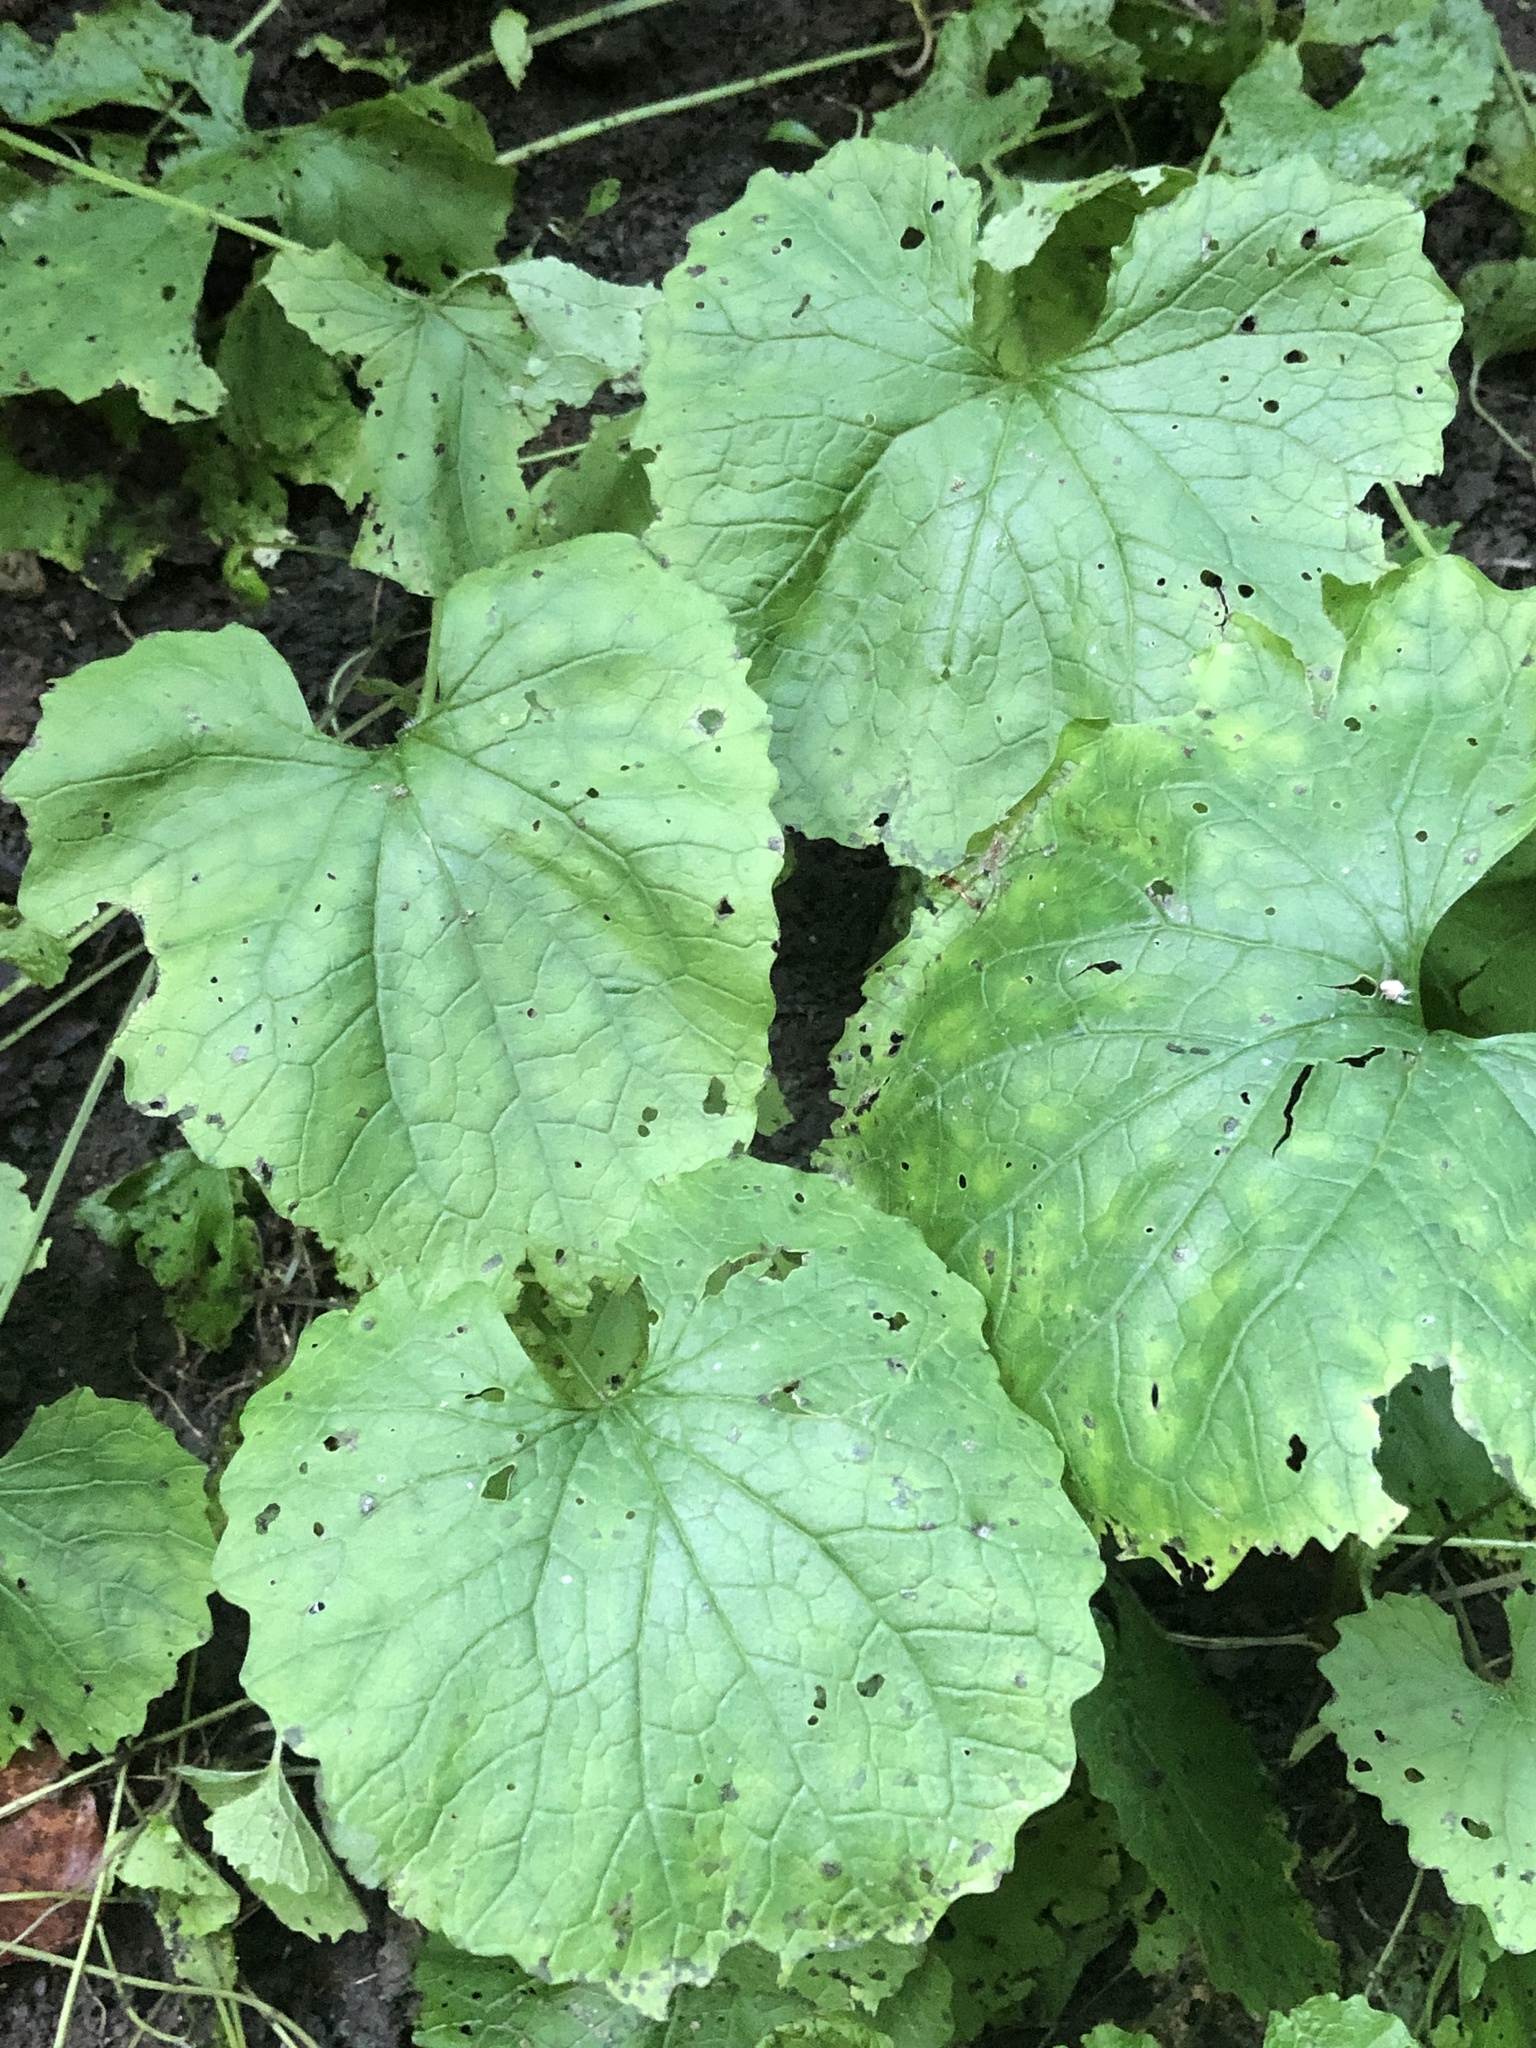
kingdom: Plantae
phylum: Tracheophyta
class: Magnoliopsida
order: Brassicales
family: Brassicaceae
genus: Alliaria
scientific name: Alliaria petiolata
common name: Garlic mustard
